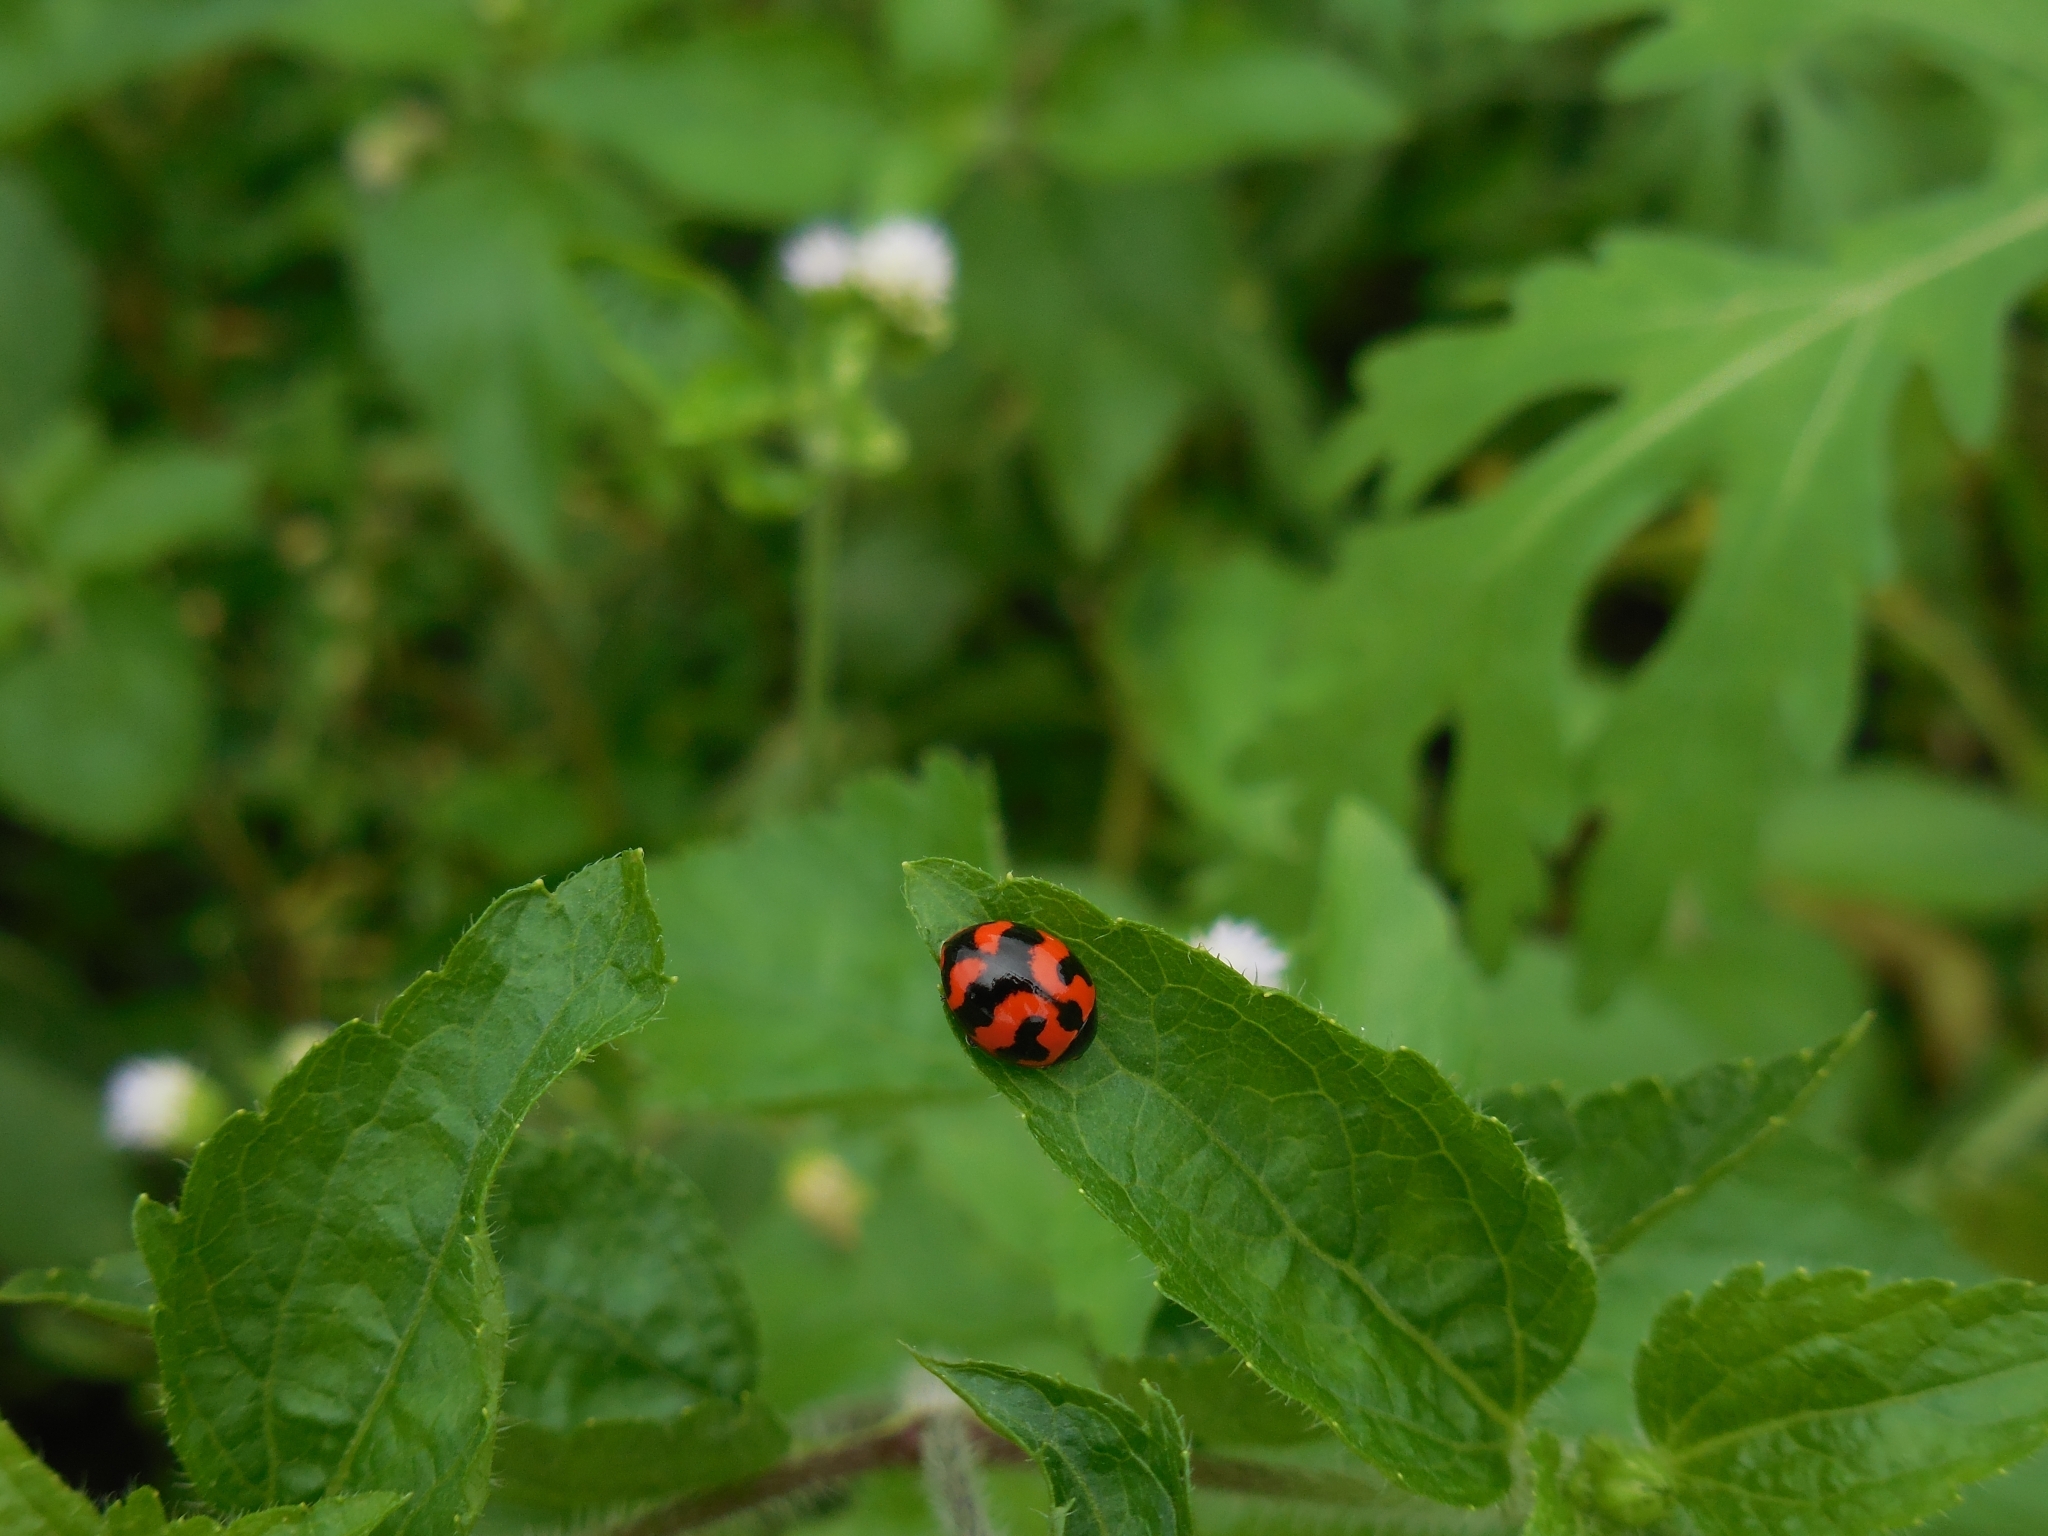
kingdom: Animalia
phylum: Arthropoda
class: Insecta
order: Coleoptera
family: Coccinellidae
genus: Coccinella
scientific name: Coccinella transversalis
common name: Transverse lady beetle
